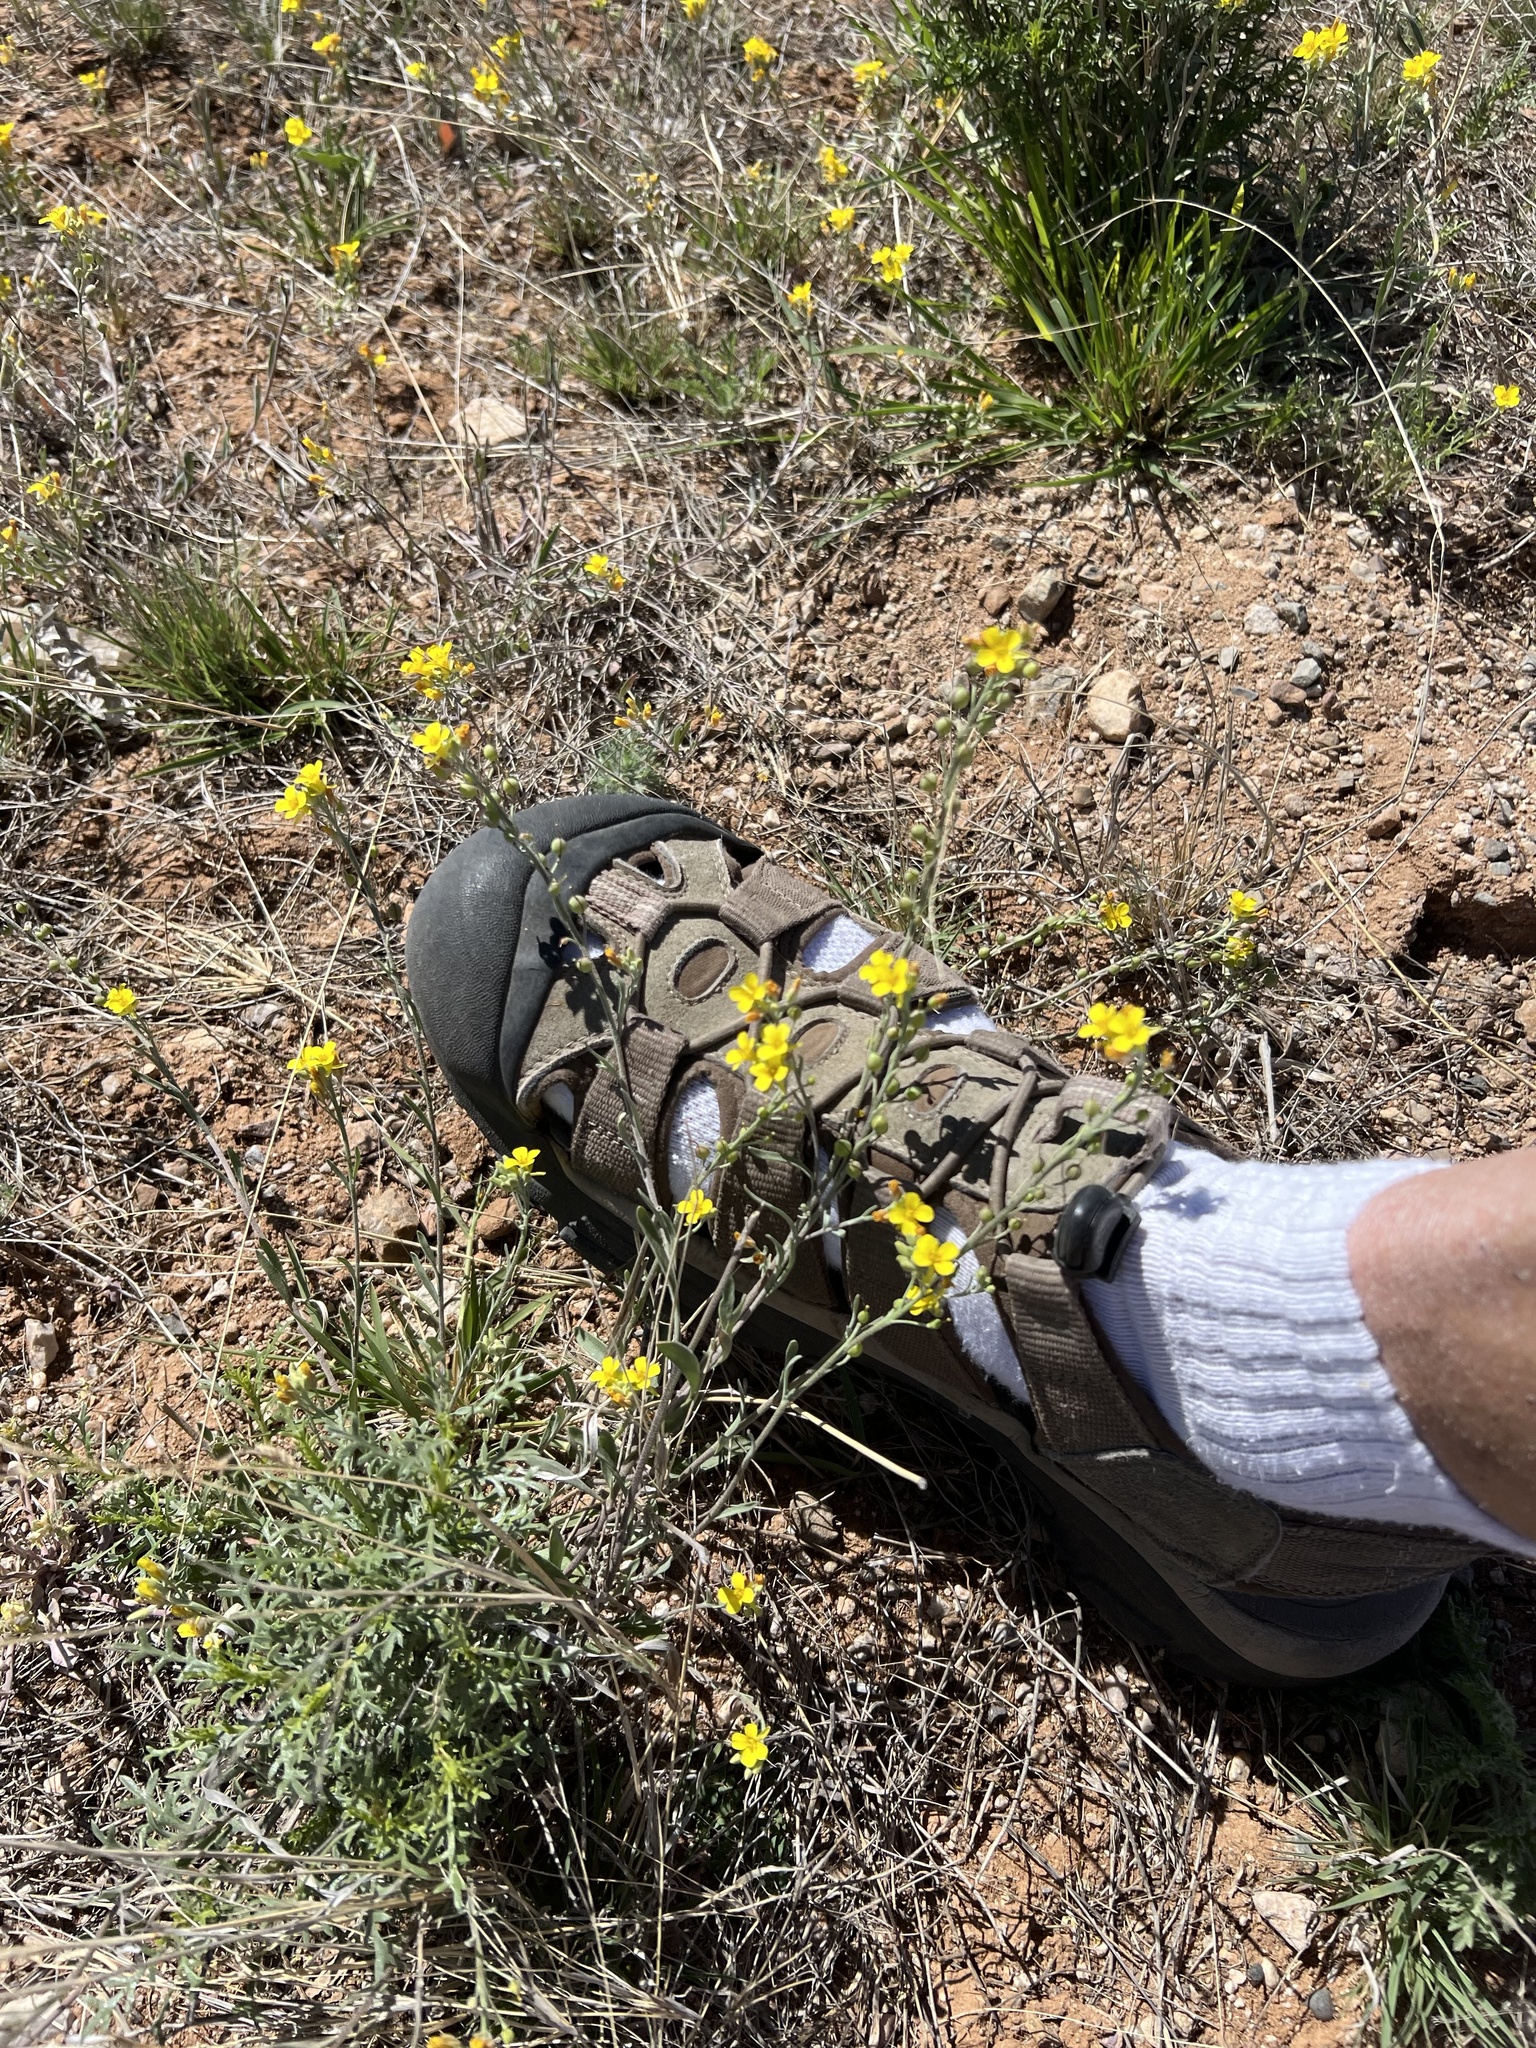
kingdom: Plantae
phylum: Tracheophyta
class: Magnoliopsida
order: Brassicales
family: Brassicaceae
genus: Physaria
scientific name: Physaria gordonii
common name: Gordon's bladderpod
